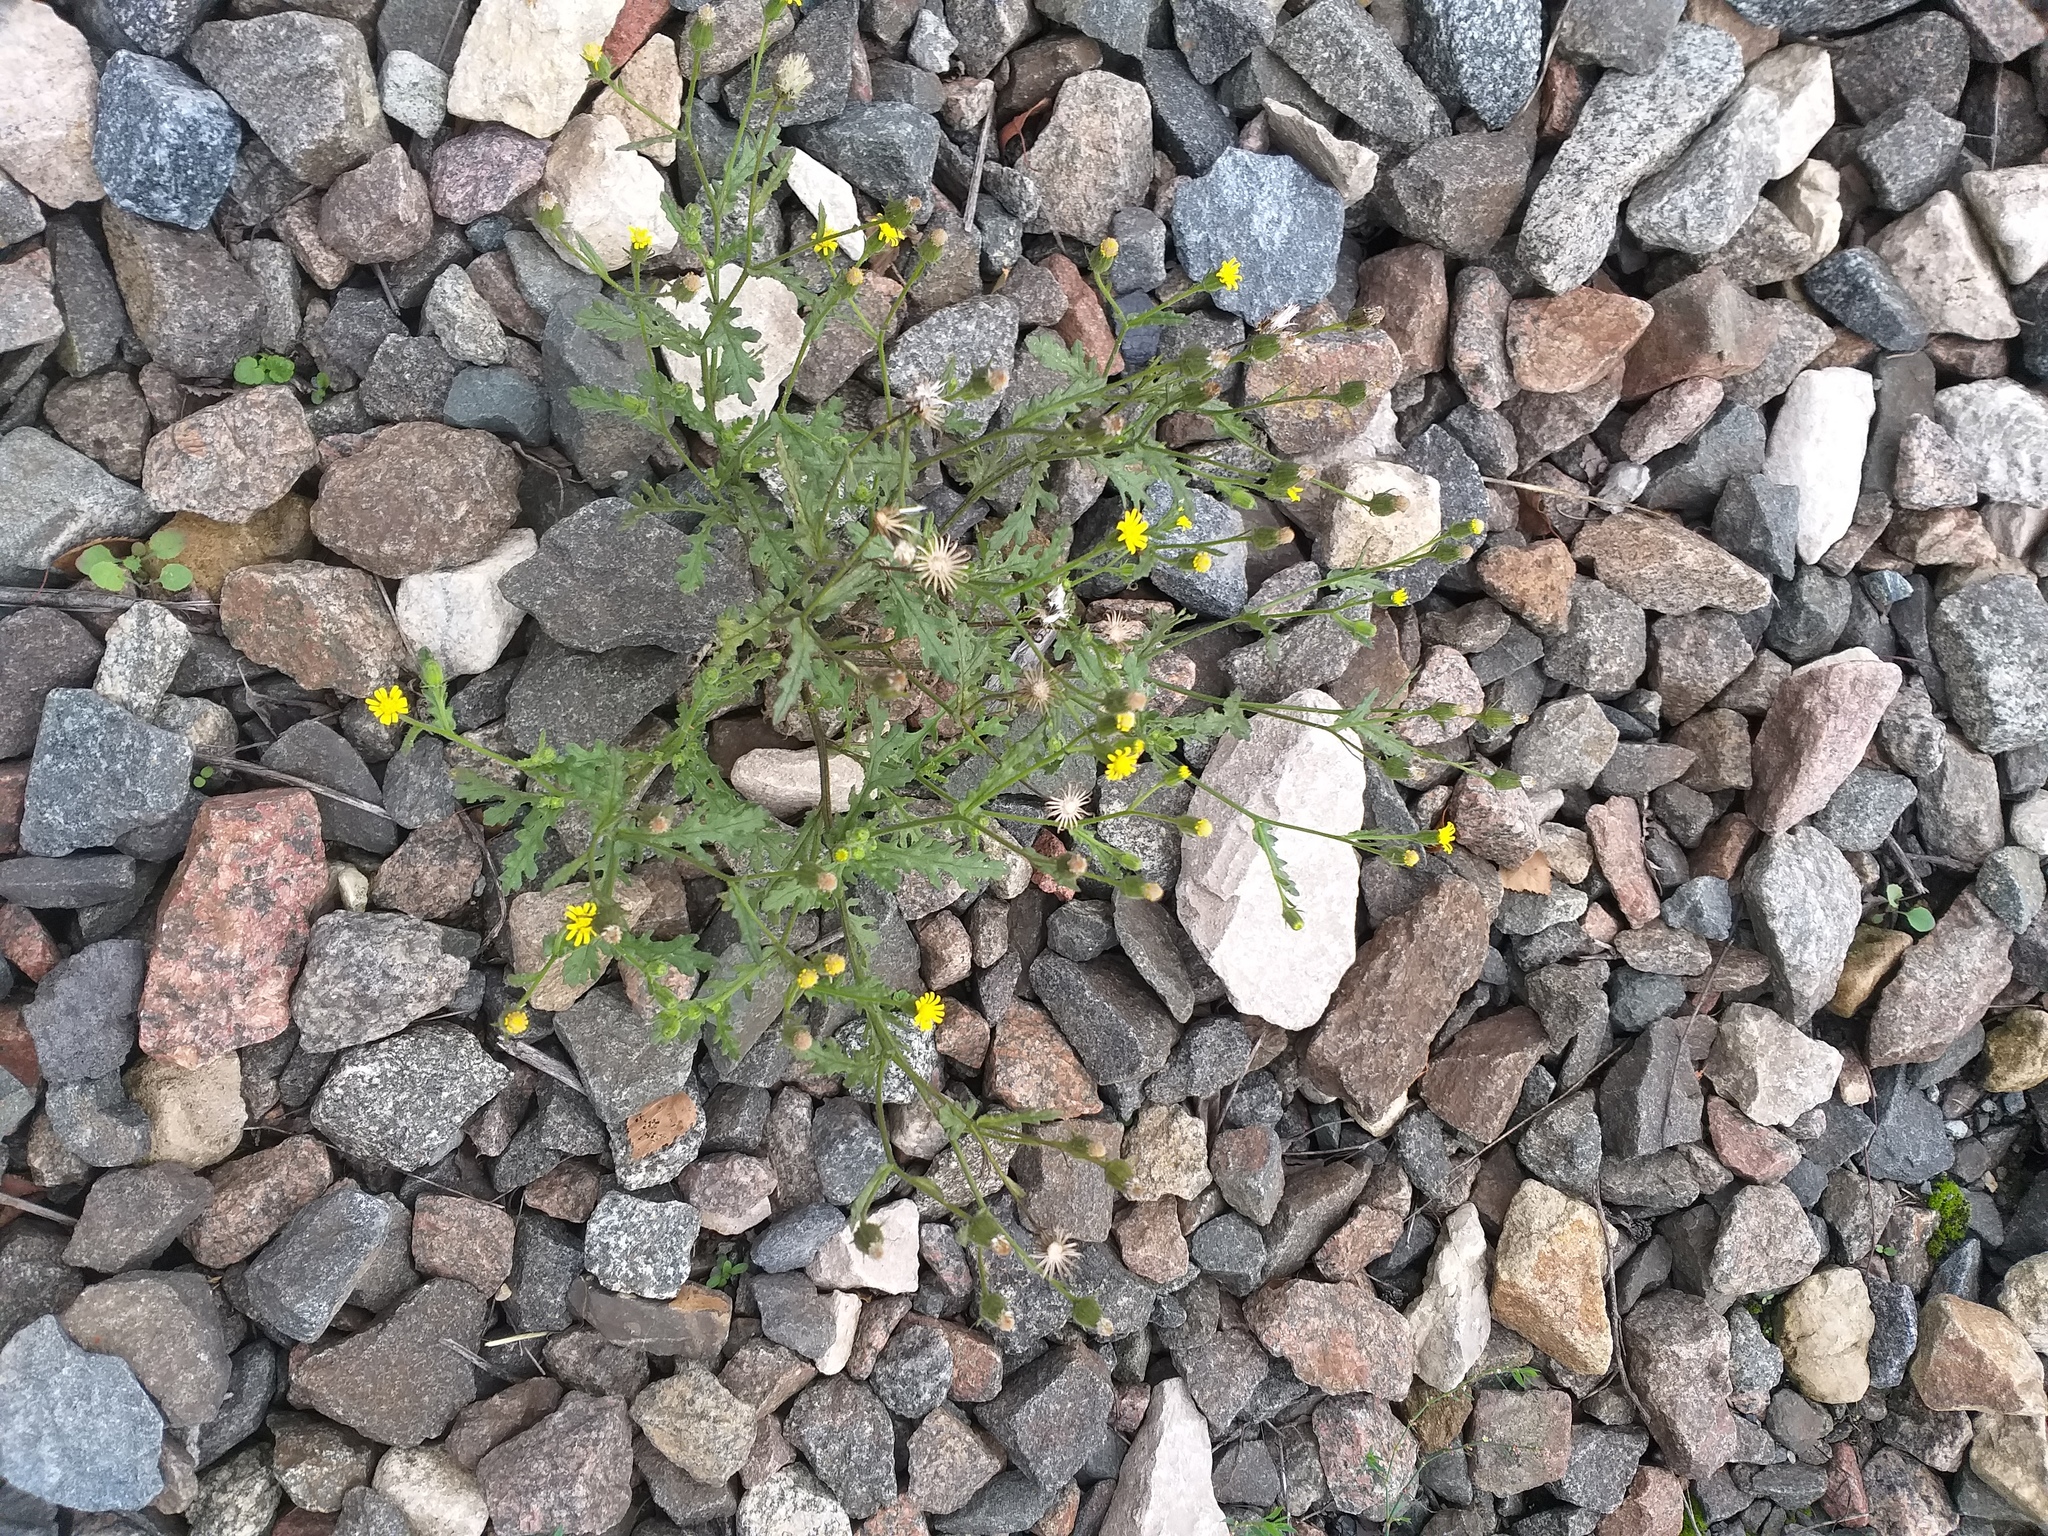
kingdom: Plantae
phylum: Tracheophyta
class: Magnoliopsida
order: Asterales
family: Asteraceae
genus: Senecio
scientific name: Senecio viscosus
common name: Sticky groundsel
